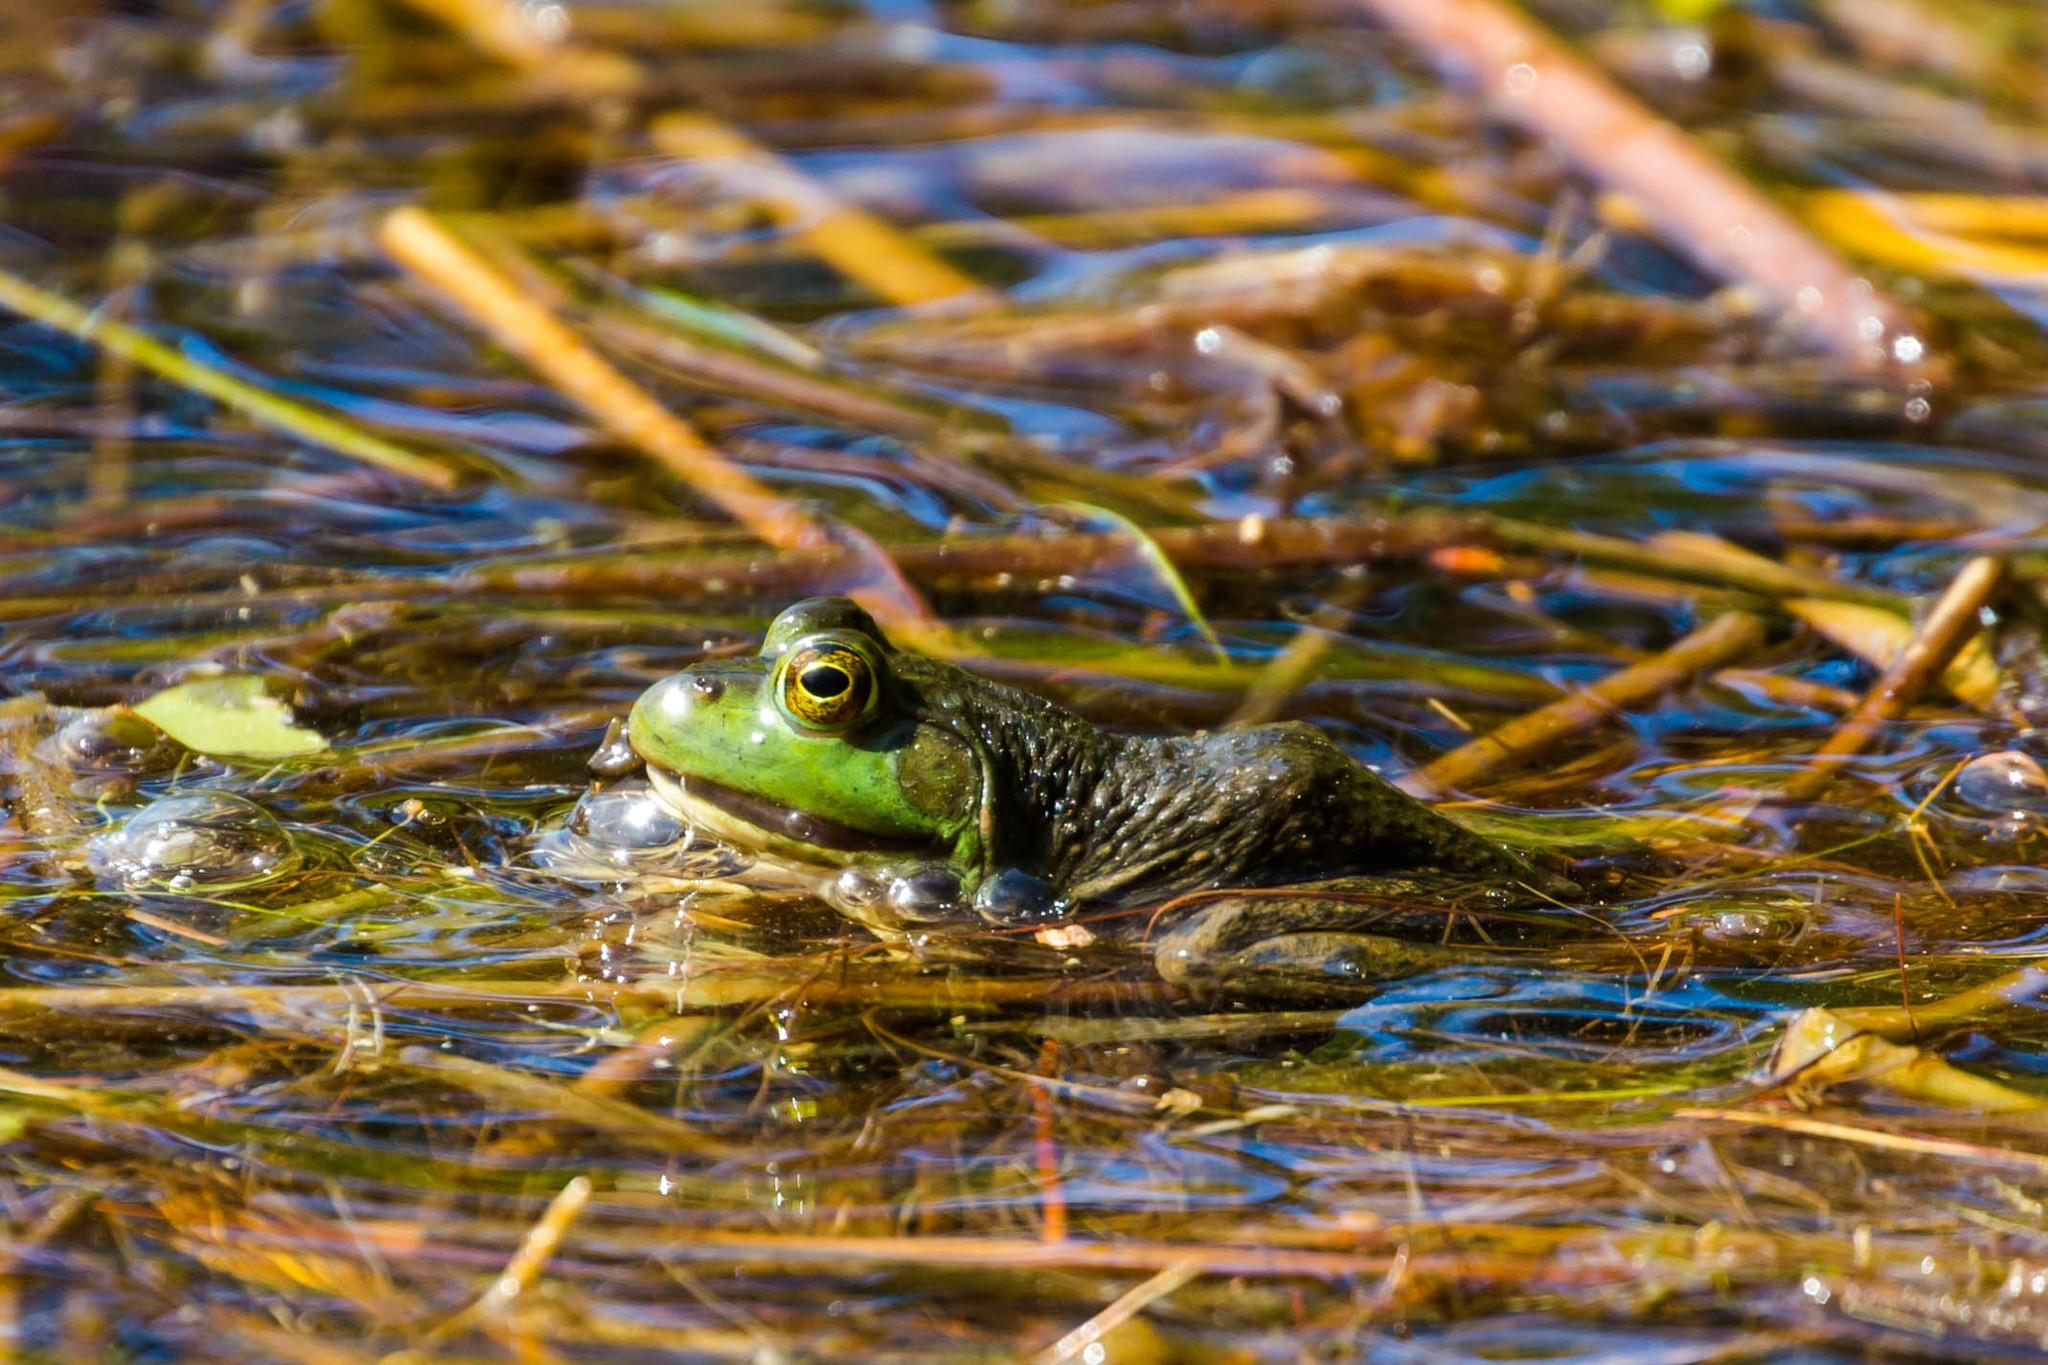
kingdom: Animalia
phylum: Chordata
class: Amphibia
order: Anura
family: Ranidae
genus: Lithobates
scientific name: Lithobates catesbeianus
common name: American bullfrog
